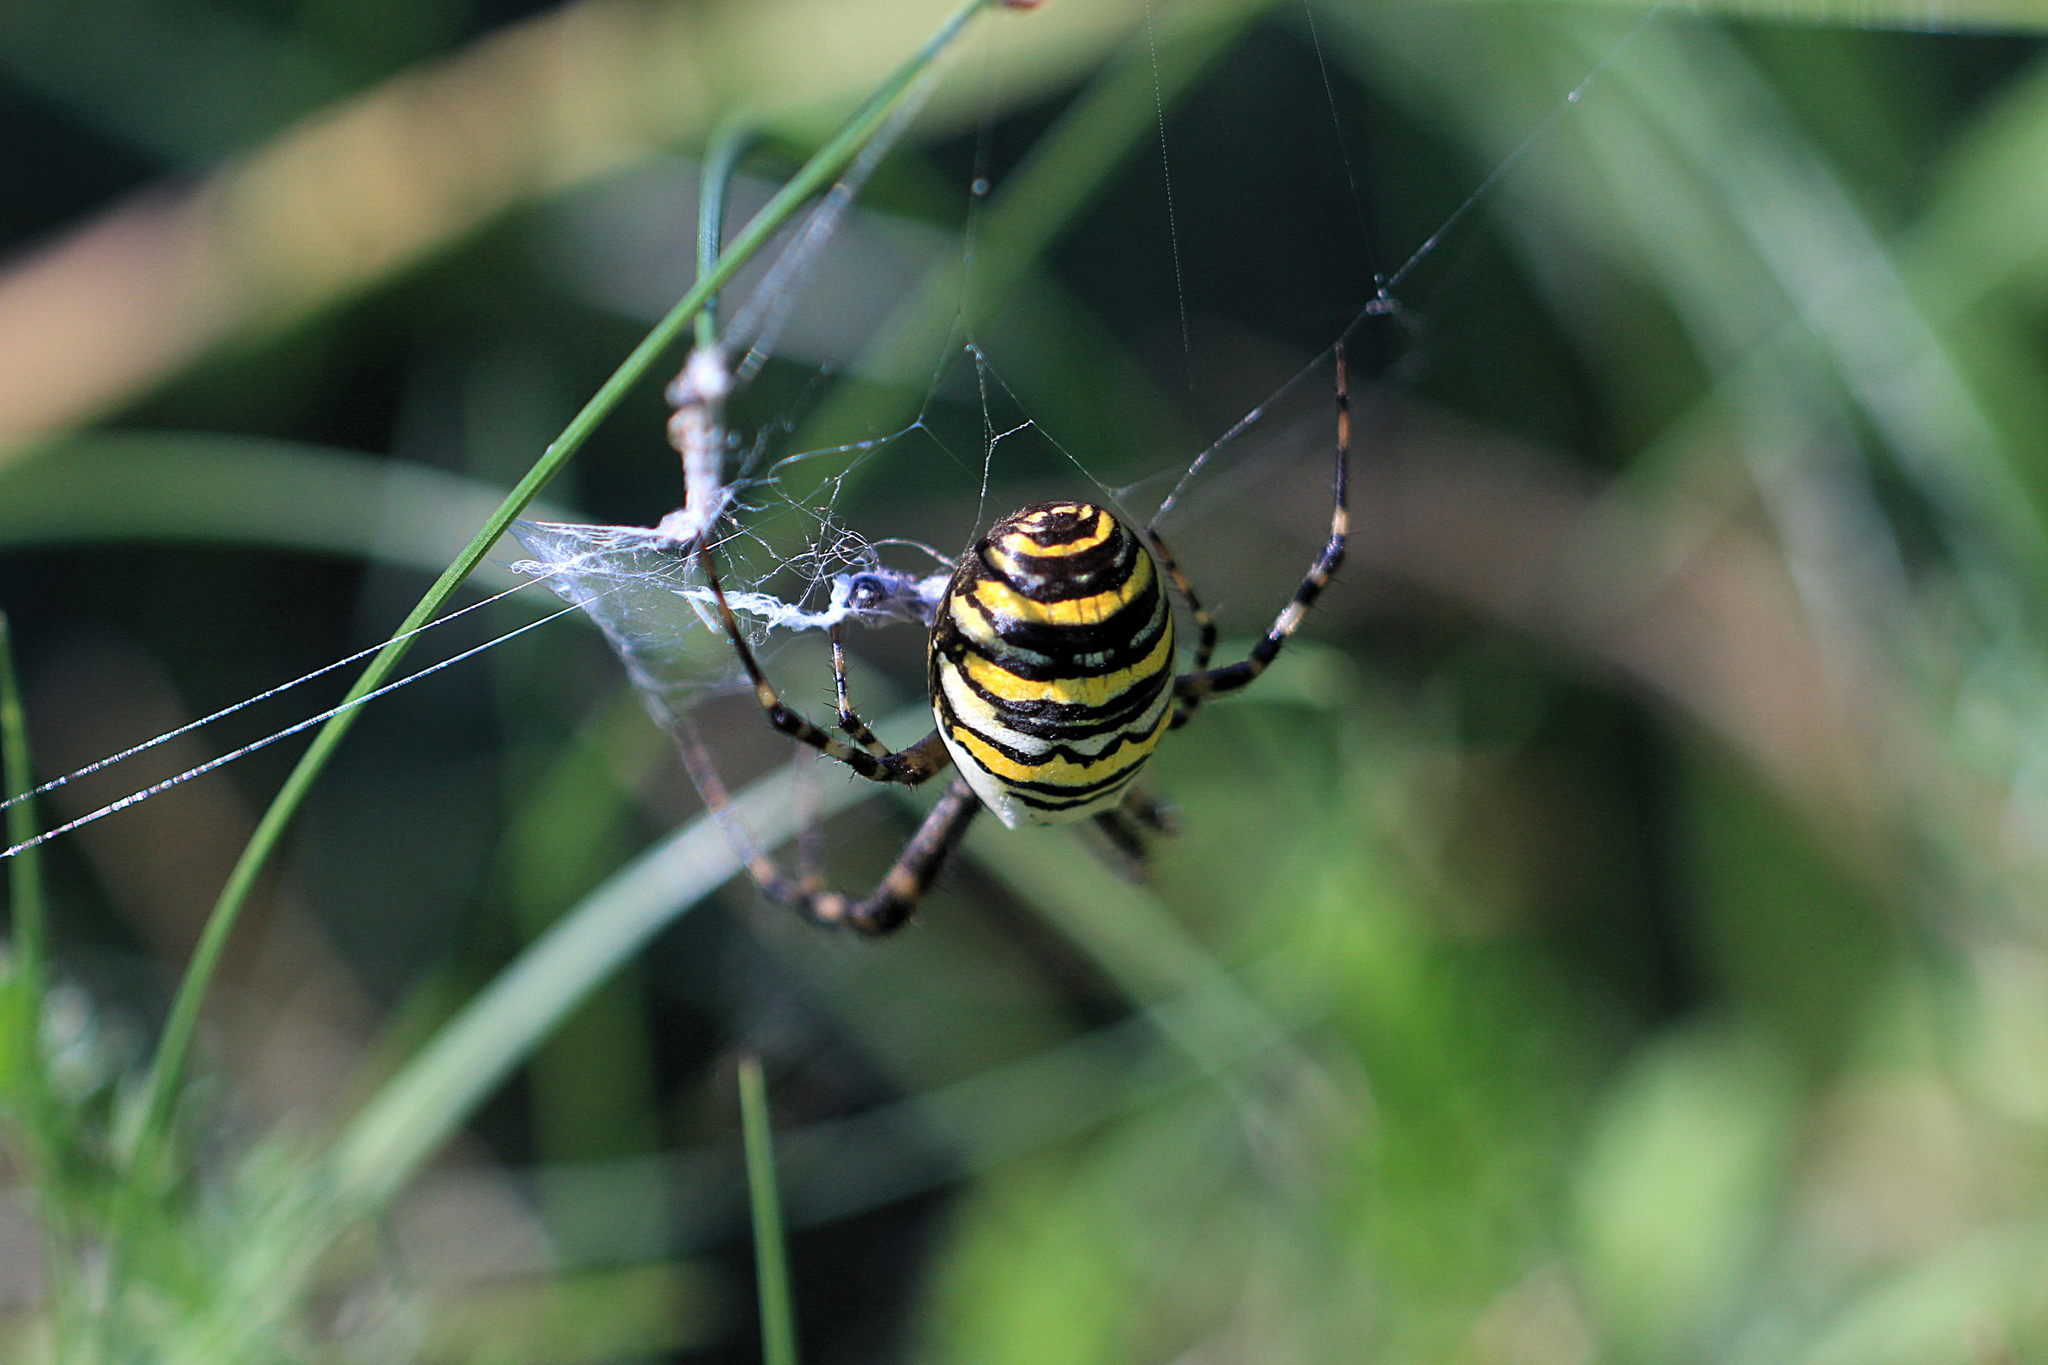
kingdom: Animalia
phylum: Arthropoda
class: Arachnida
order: Araneae
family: Araneidae
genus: Argiope
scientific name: Argiope bruennichi
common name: Wasp spider
